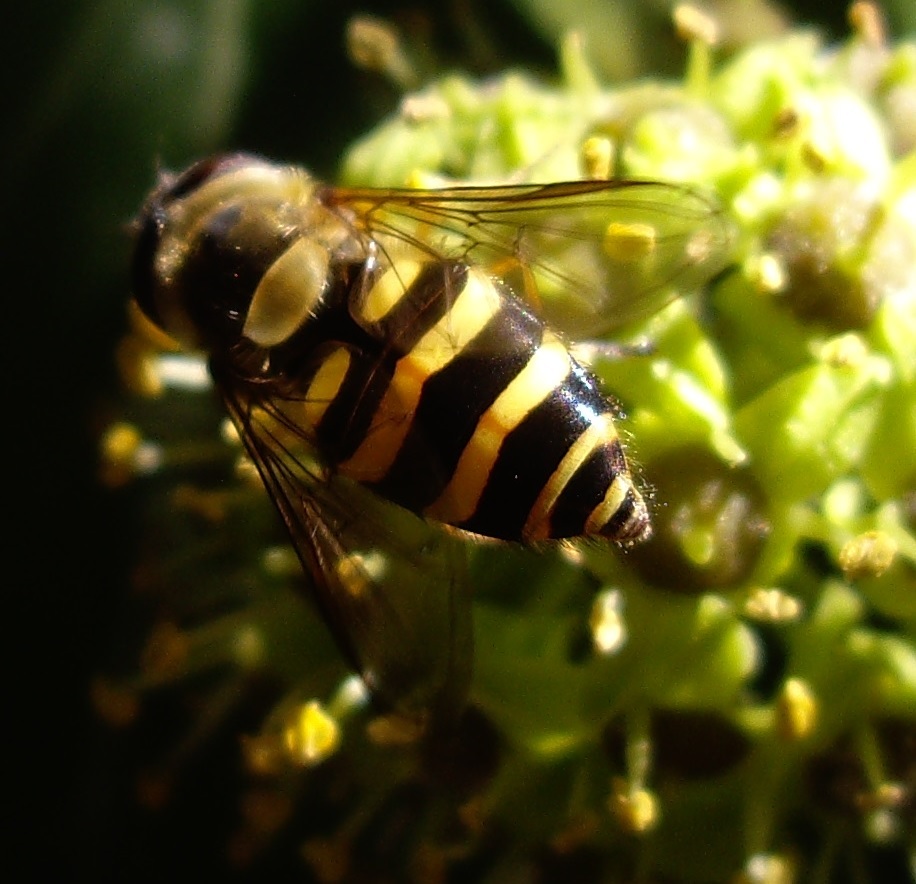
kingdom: Animalia
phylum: Arthropoda
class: Insecta
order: Diptera
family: Syrphidae
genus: Syrphus
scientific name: Syrphus
